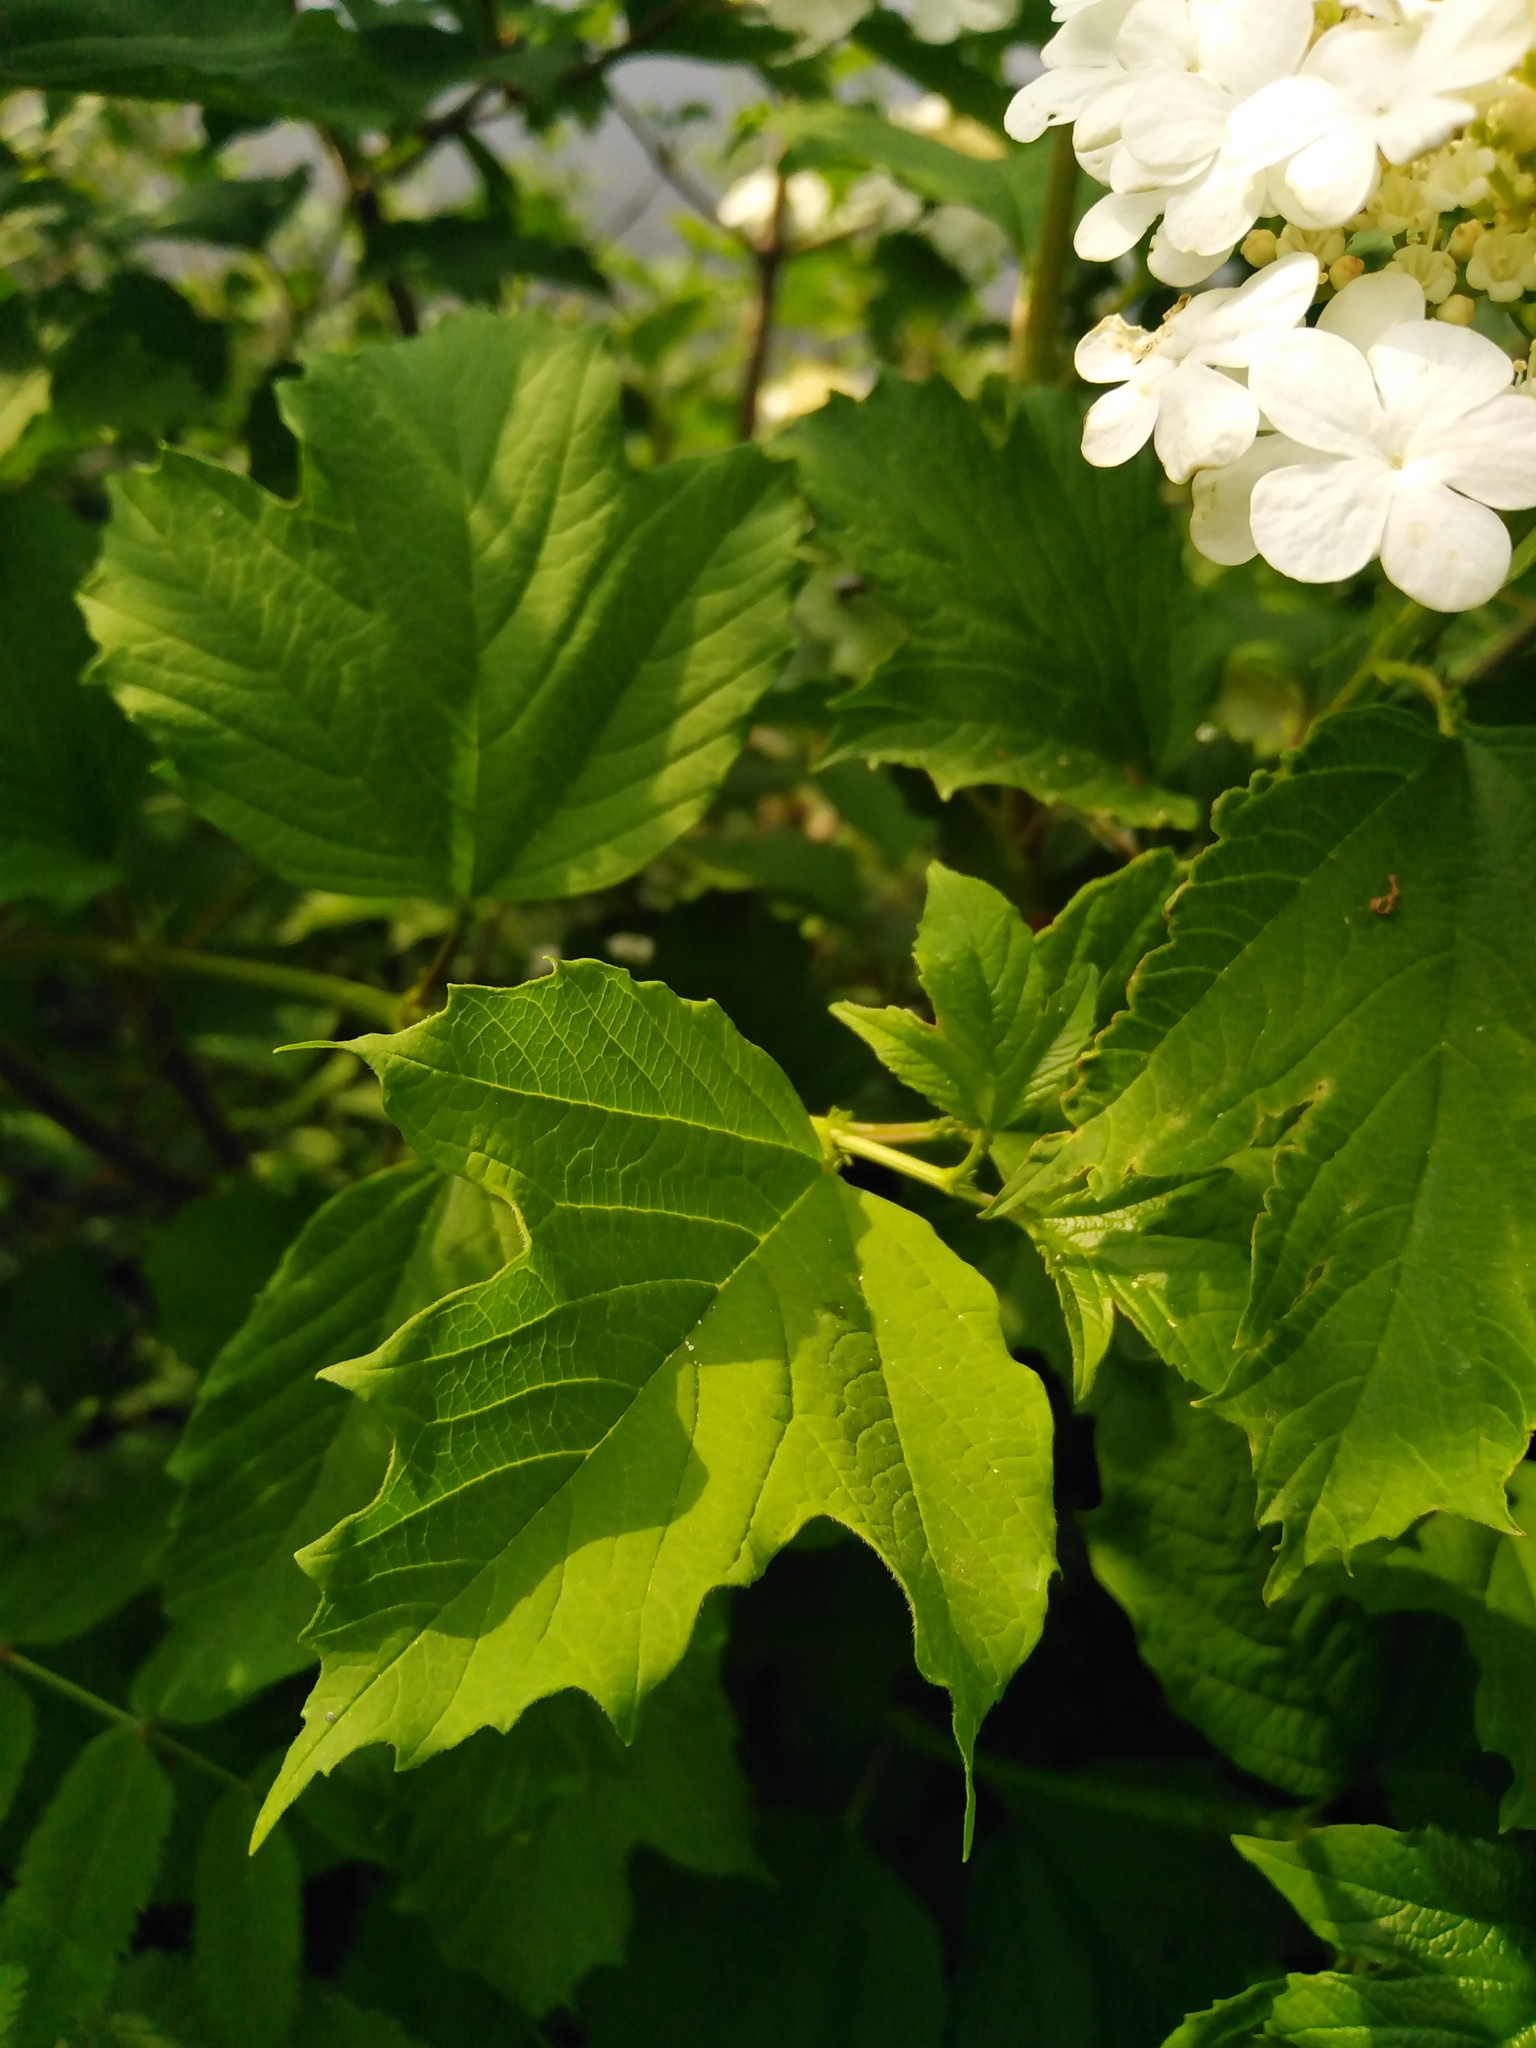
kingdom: Plantae
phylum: Tracheophyta
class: Magnoliopsida
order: Dipsacales
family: Viburnaceae
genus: Viburnum
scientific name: Viburnum opulus
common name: Guelder-rose
